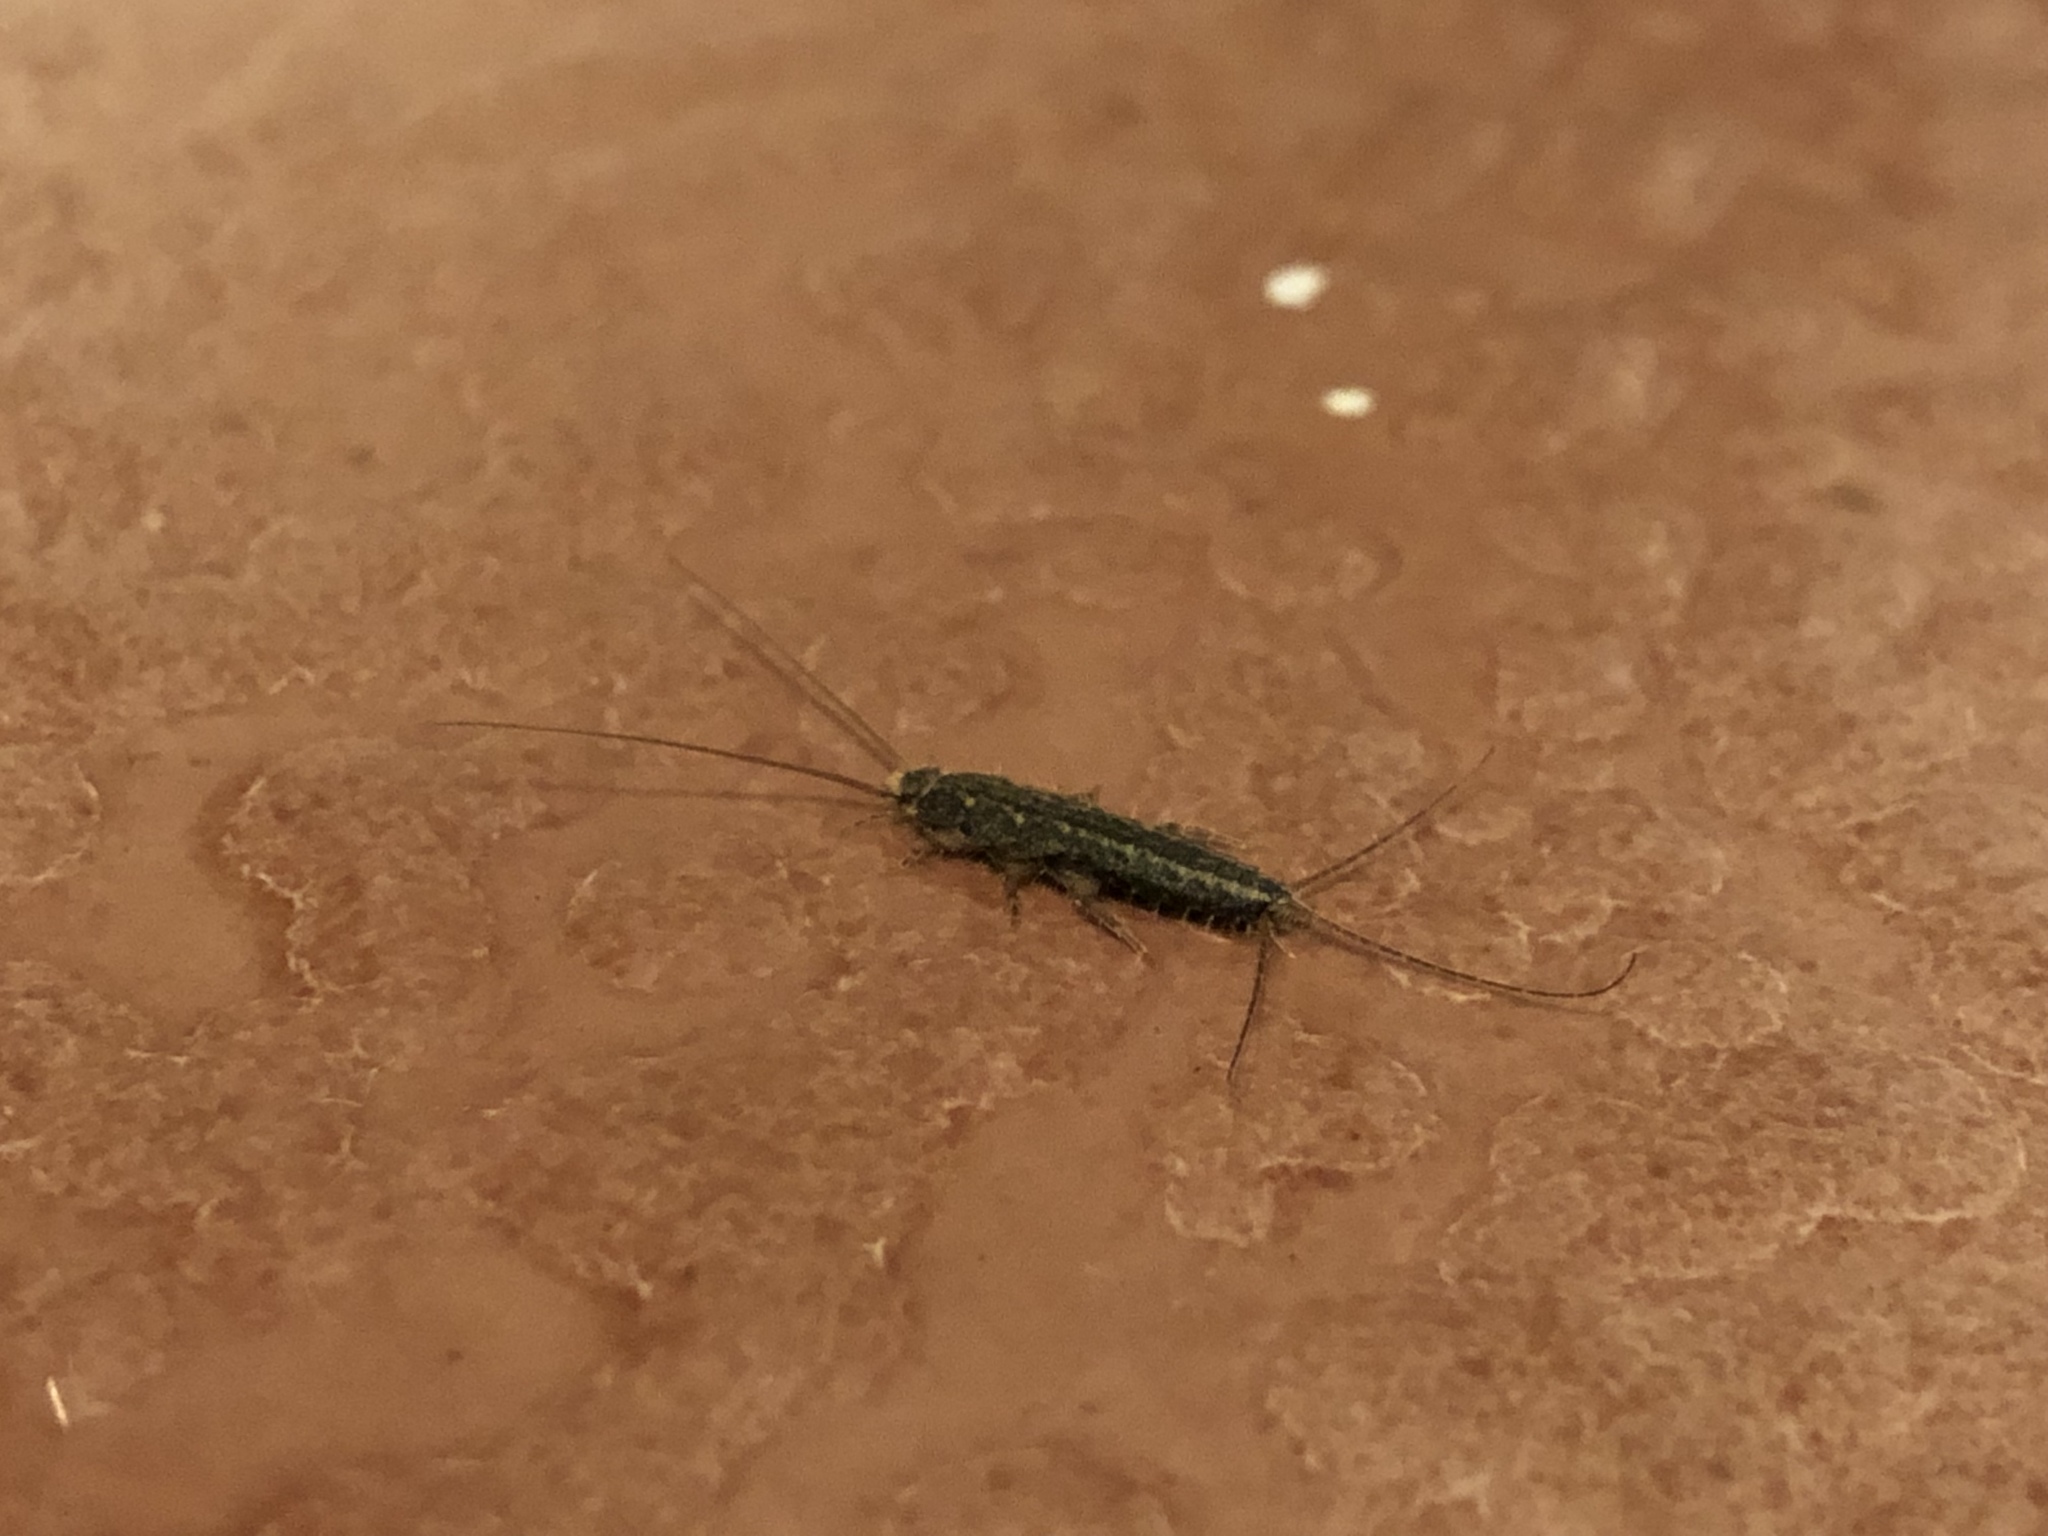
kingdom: Animalia
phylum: Arthropoda
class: Insecta
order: Zygentoma
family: Lepismatidae
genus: Ctenolepisma
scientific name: Ctenolepisma lineata
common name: Four-lined silverfish
